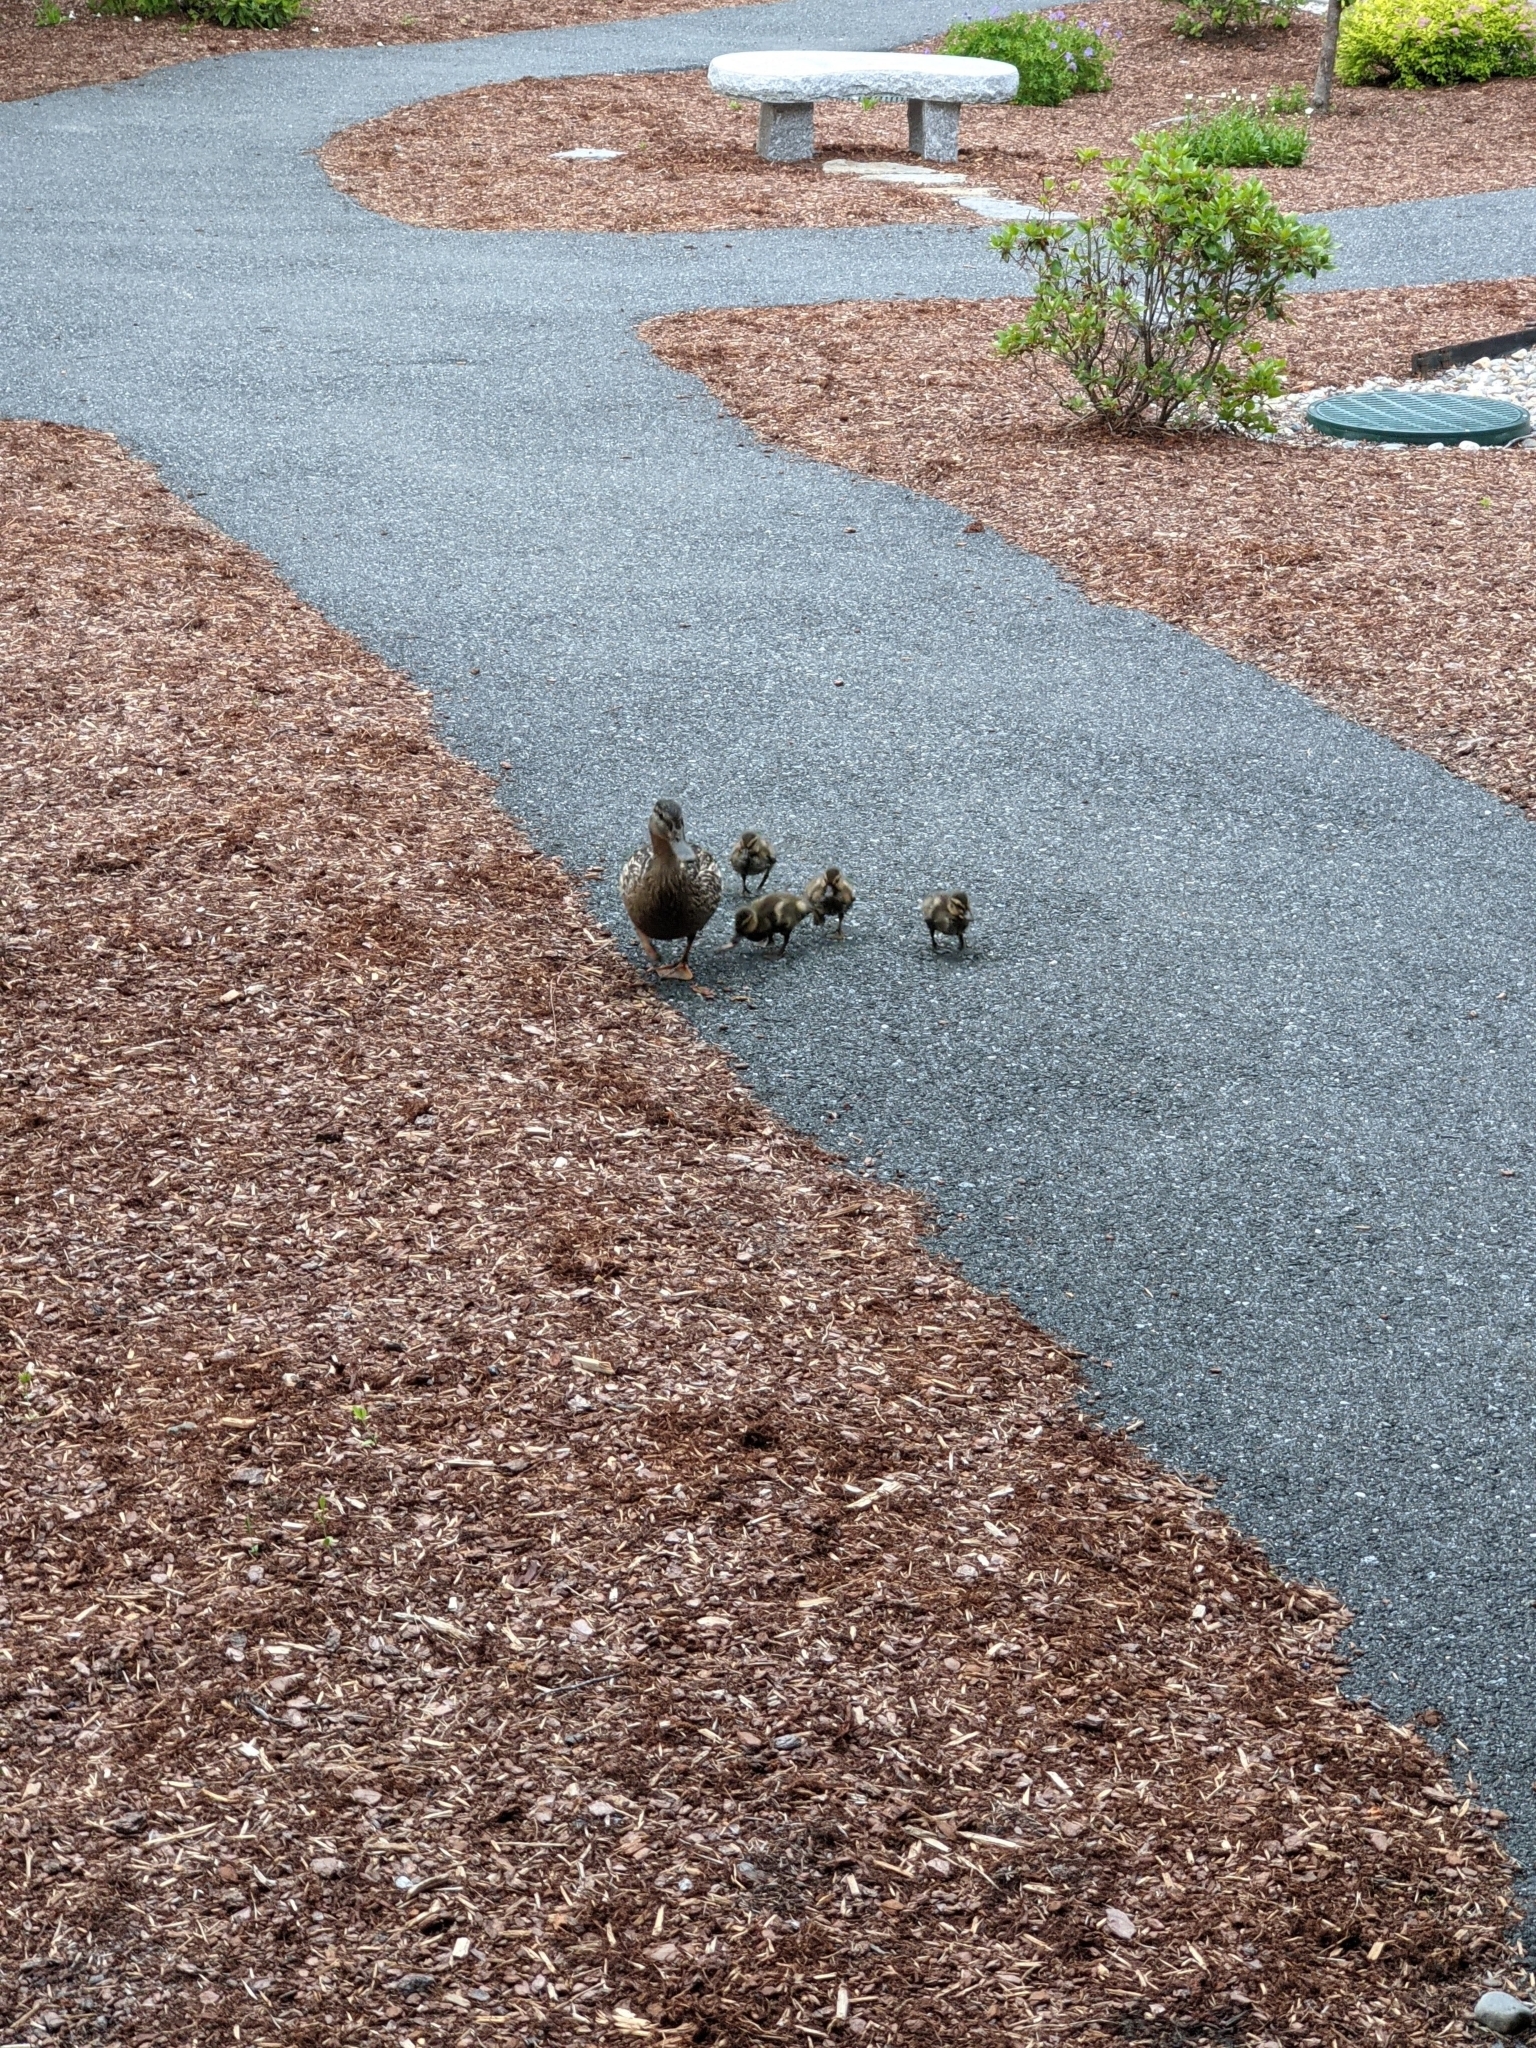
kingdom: Animalia
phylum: Chordata
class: Aves
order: Anseriformes
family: Anatidae
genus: Anas
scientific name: Anas platyrhynchos
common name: Mallard
